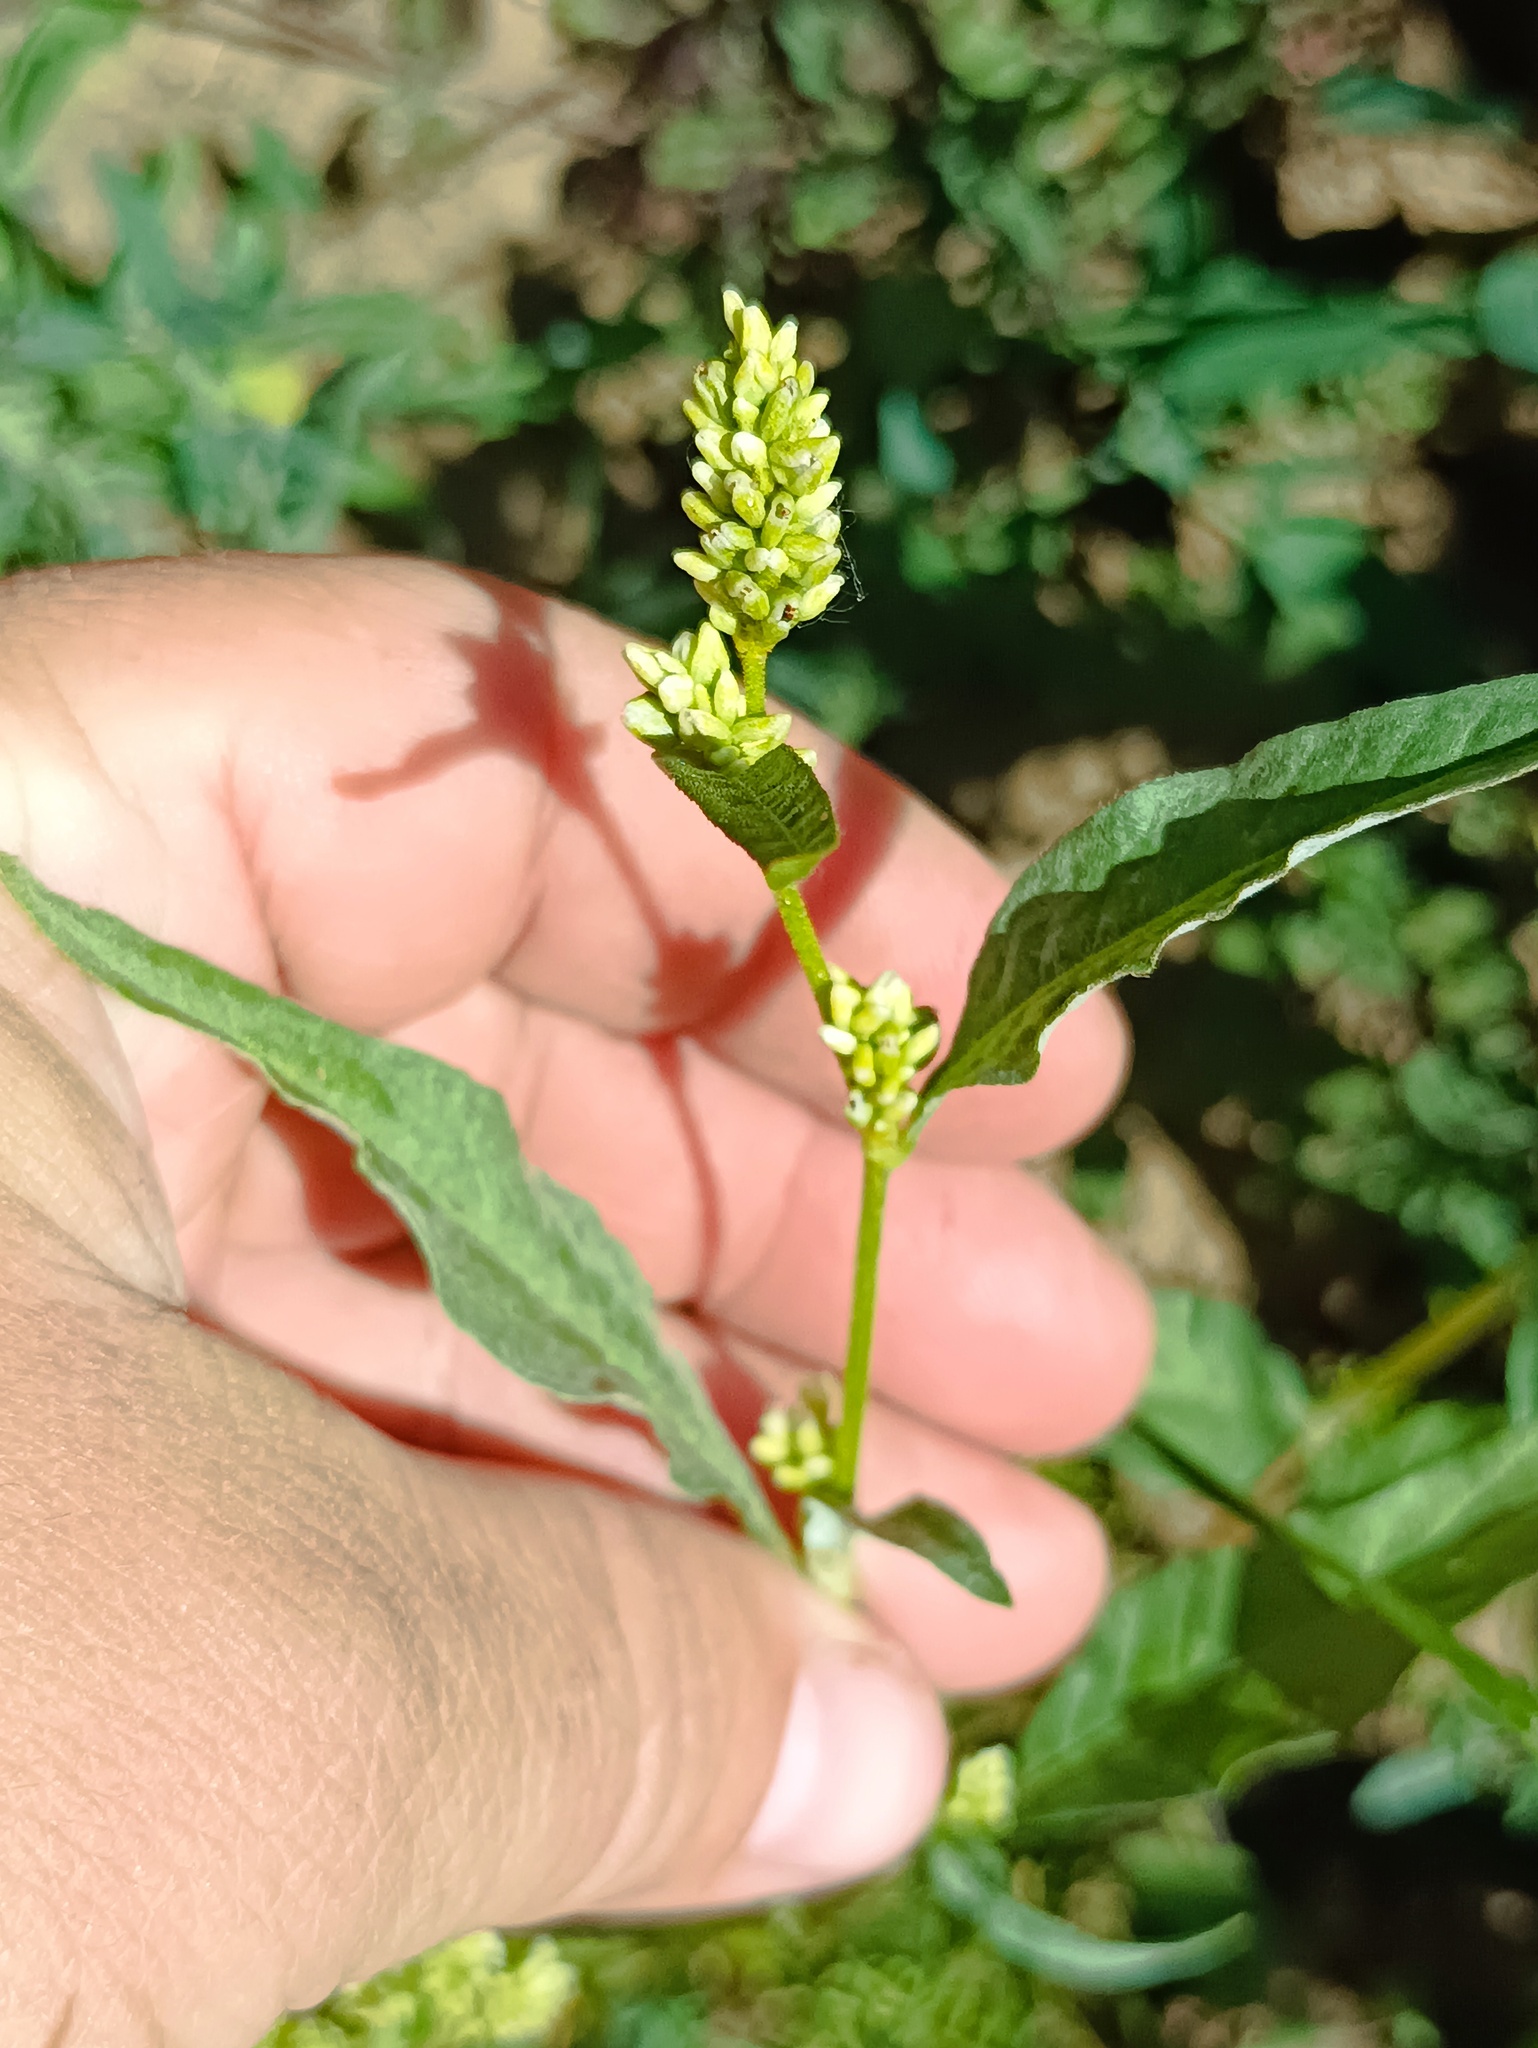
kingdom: Plantae
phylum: Tracheophyta
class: Magnoliopsida
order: Caryophyllales
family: Polygonaceae
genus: Persicaria
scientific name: Persicaria lapathifolia
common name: Curlytop knotweed
